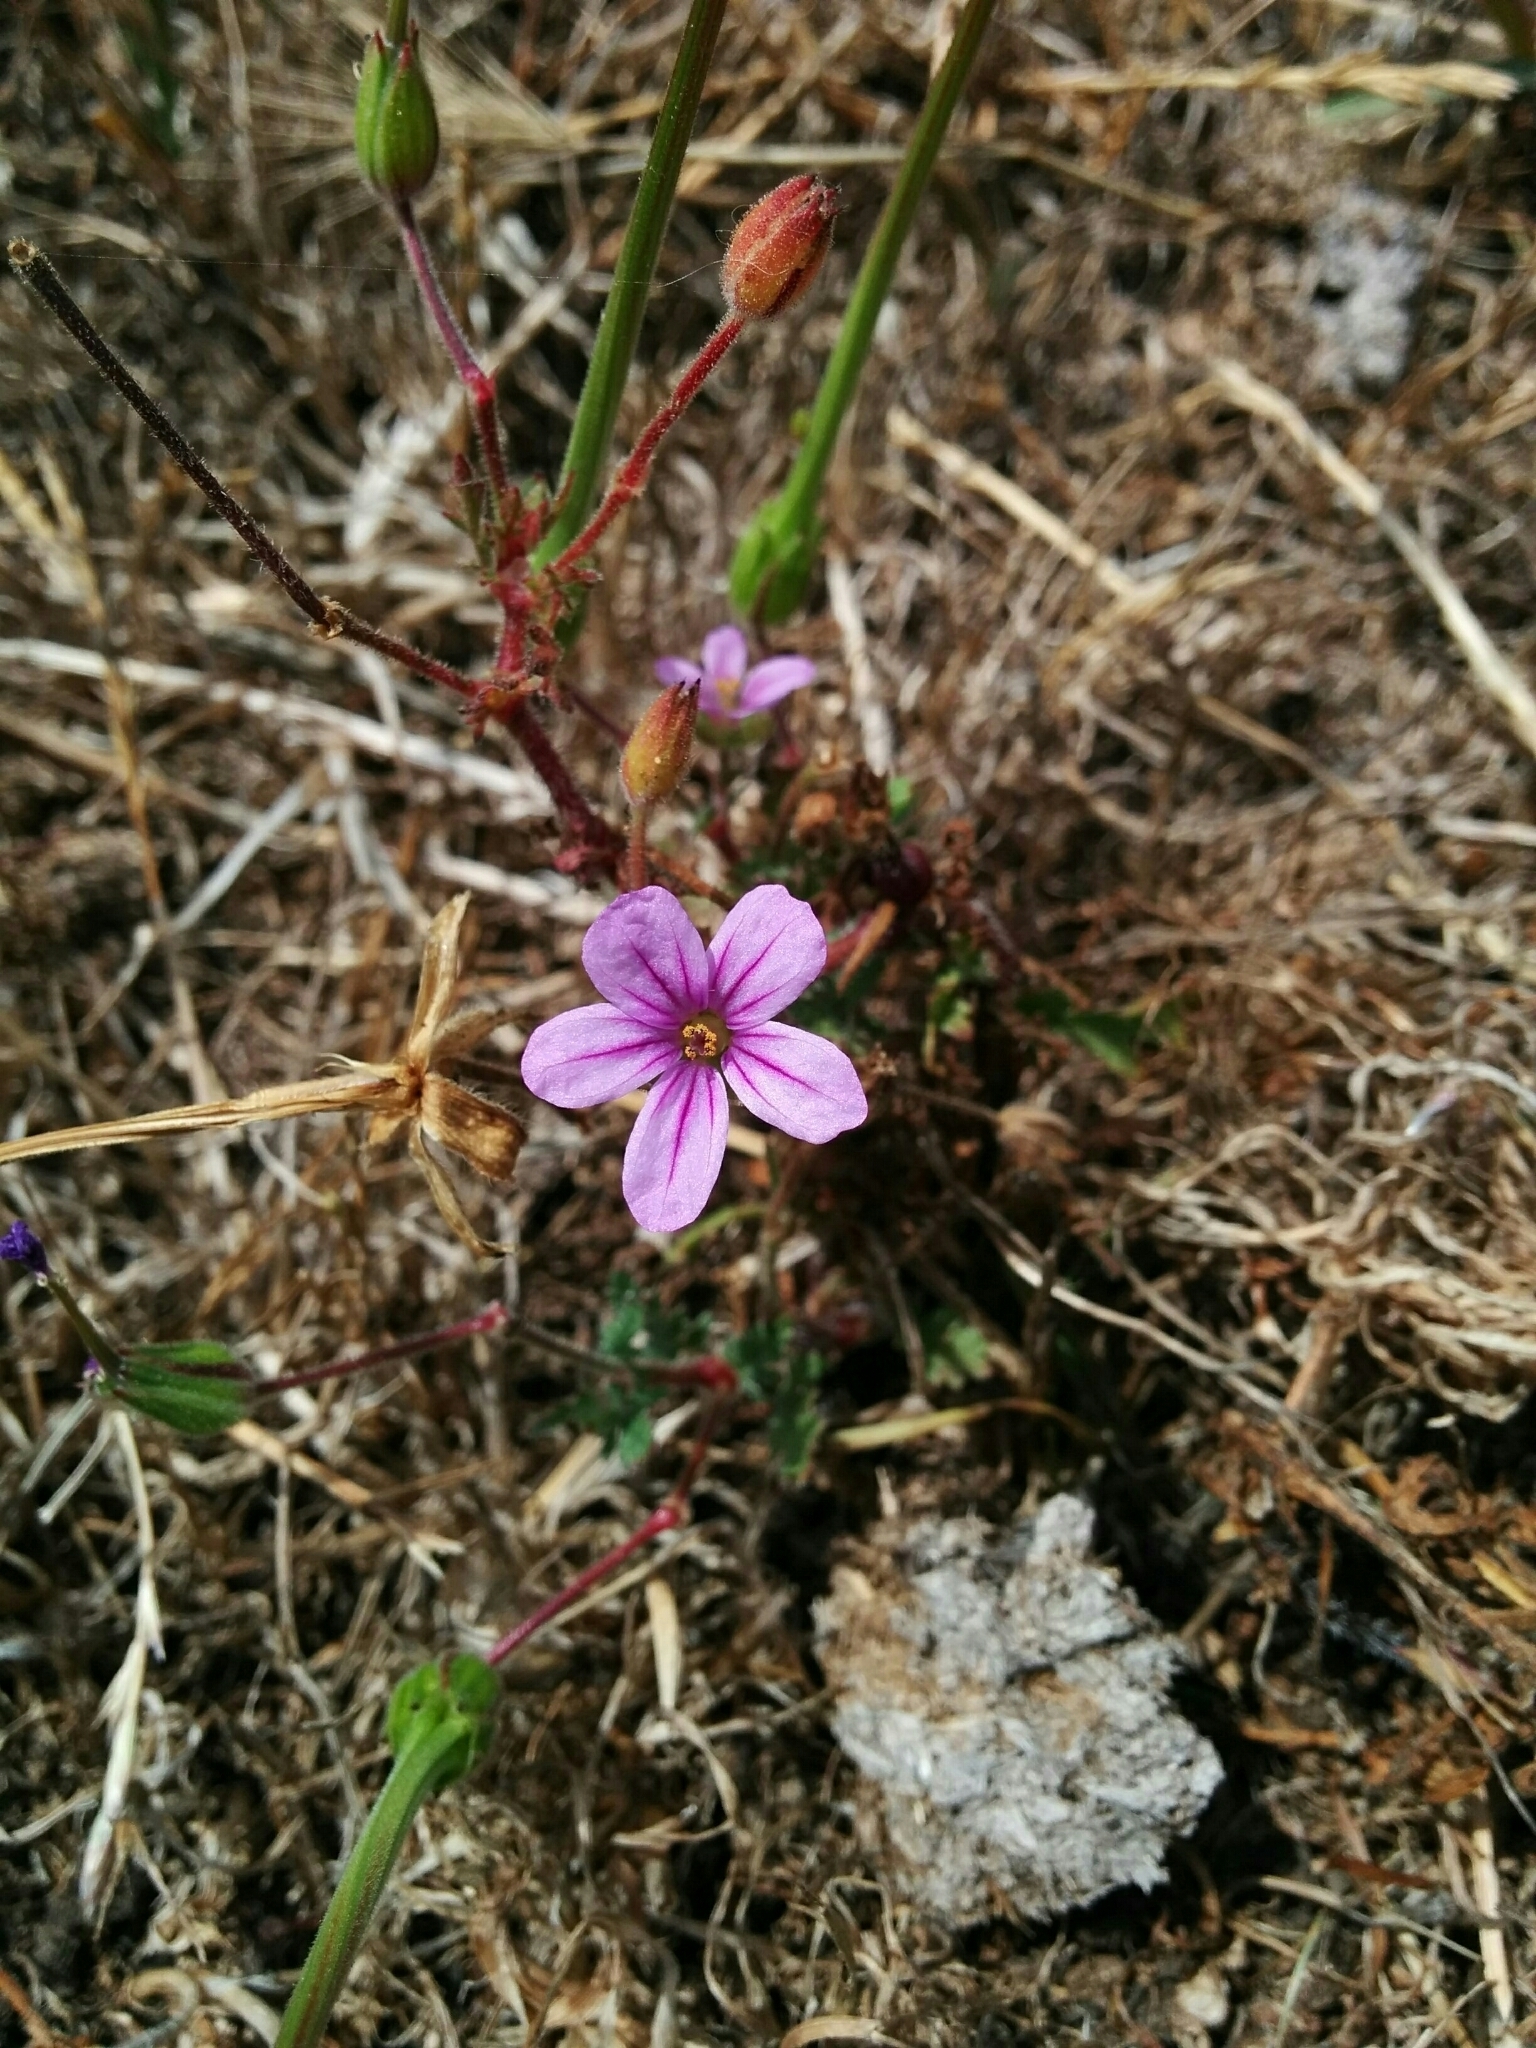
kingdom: Plantae
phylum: Tracheophyta
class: Magnoliopsida
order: Geraniales
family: Geraniaceae
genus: Erodium
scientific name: Erodium botrys
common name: Mediterranean stork's-bill
